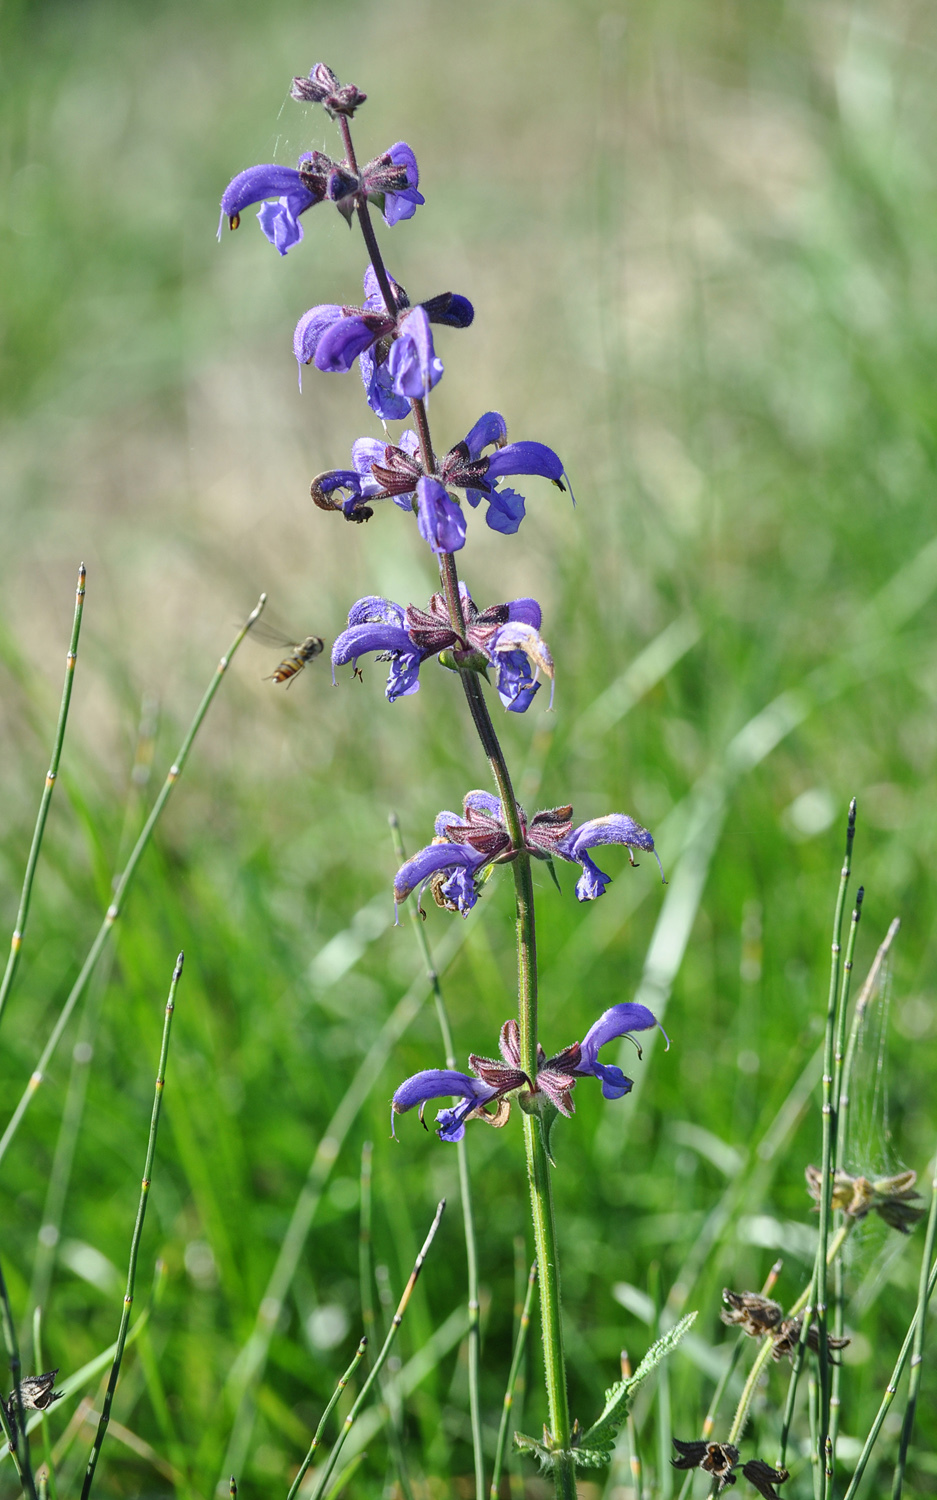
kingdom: Plantae
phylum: Tracheophyta
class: Magnoliopsida
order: Lamiales
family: Lamiaceae
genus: Salvia
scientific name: Salvia pratensis
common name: Meadow sage
